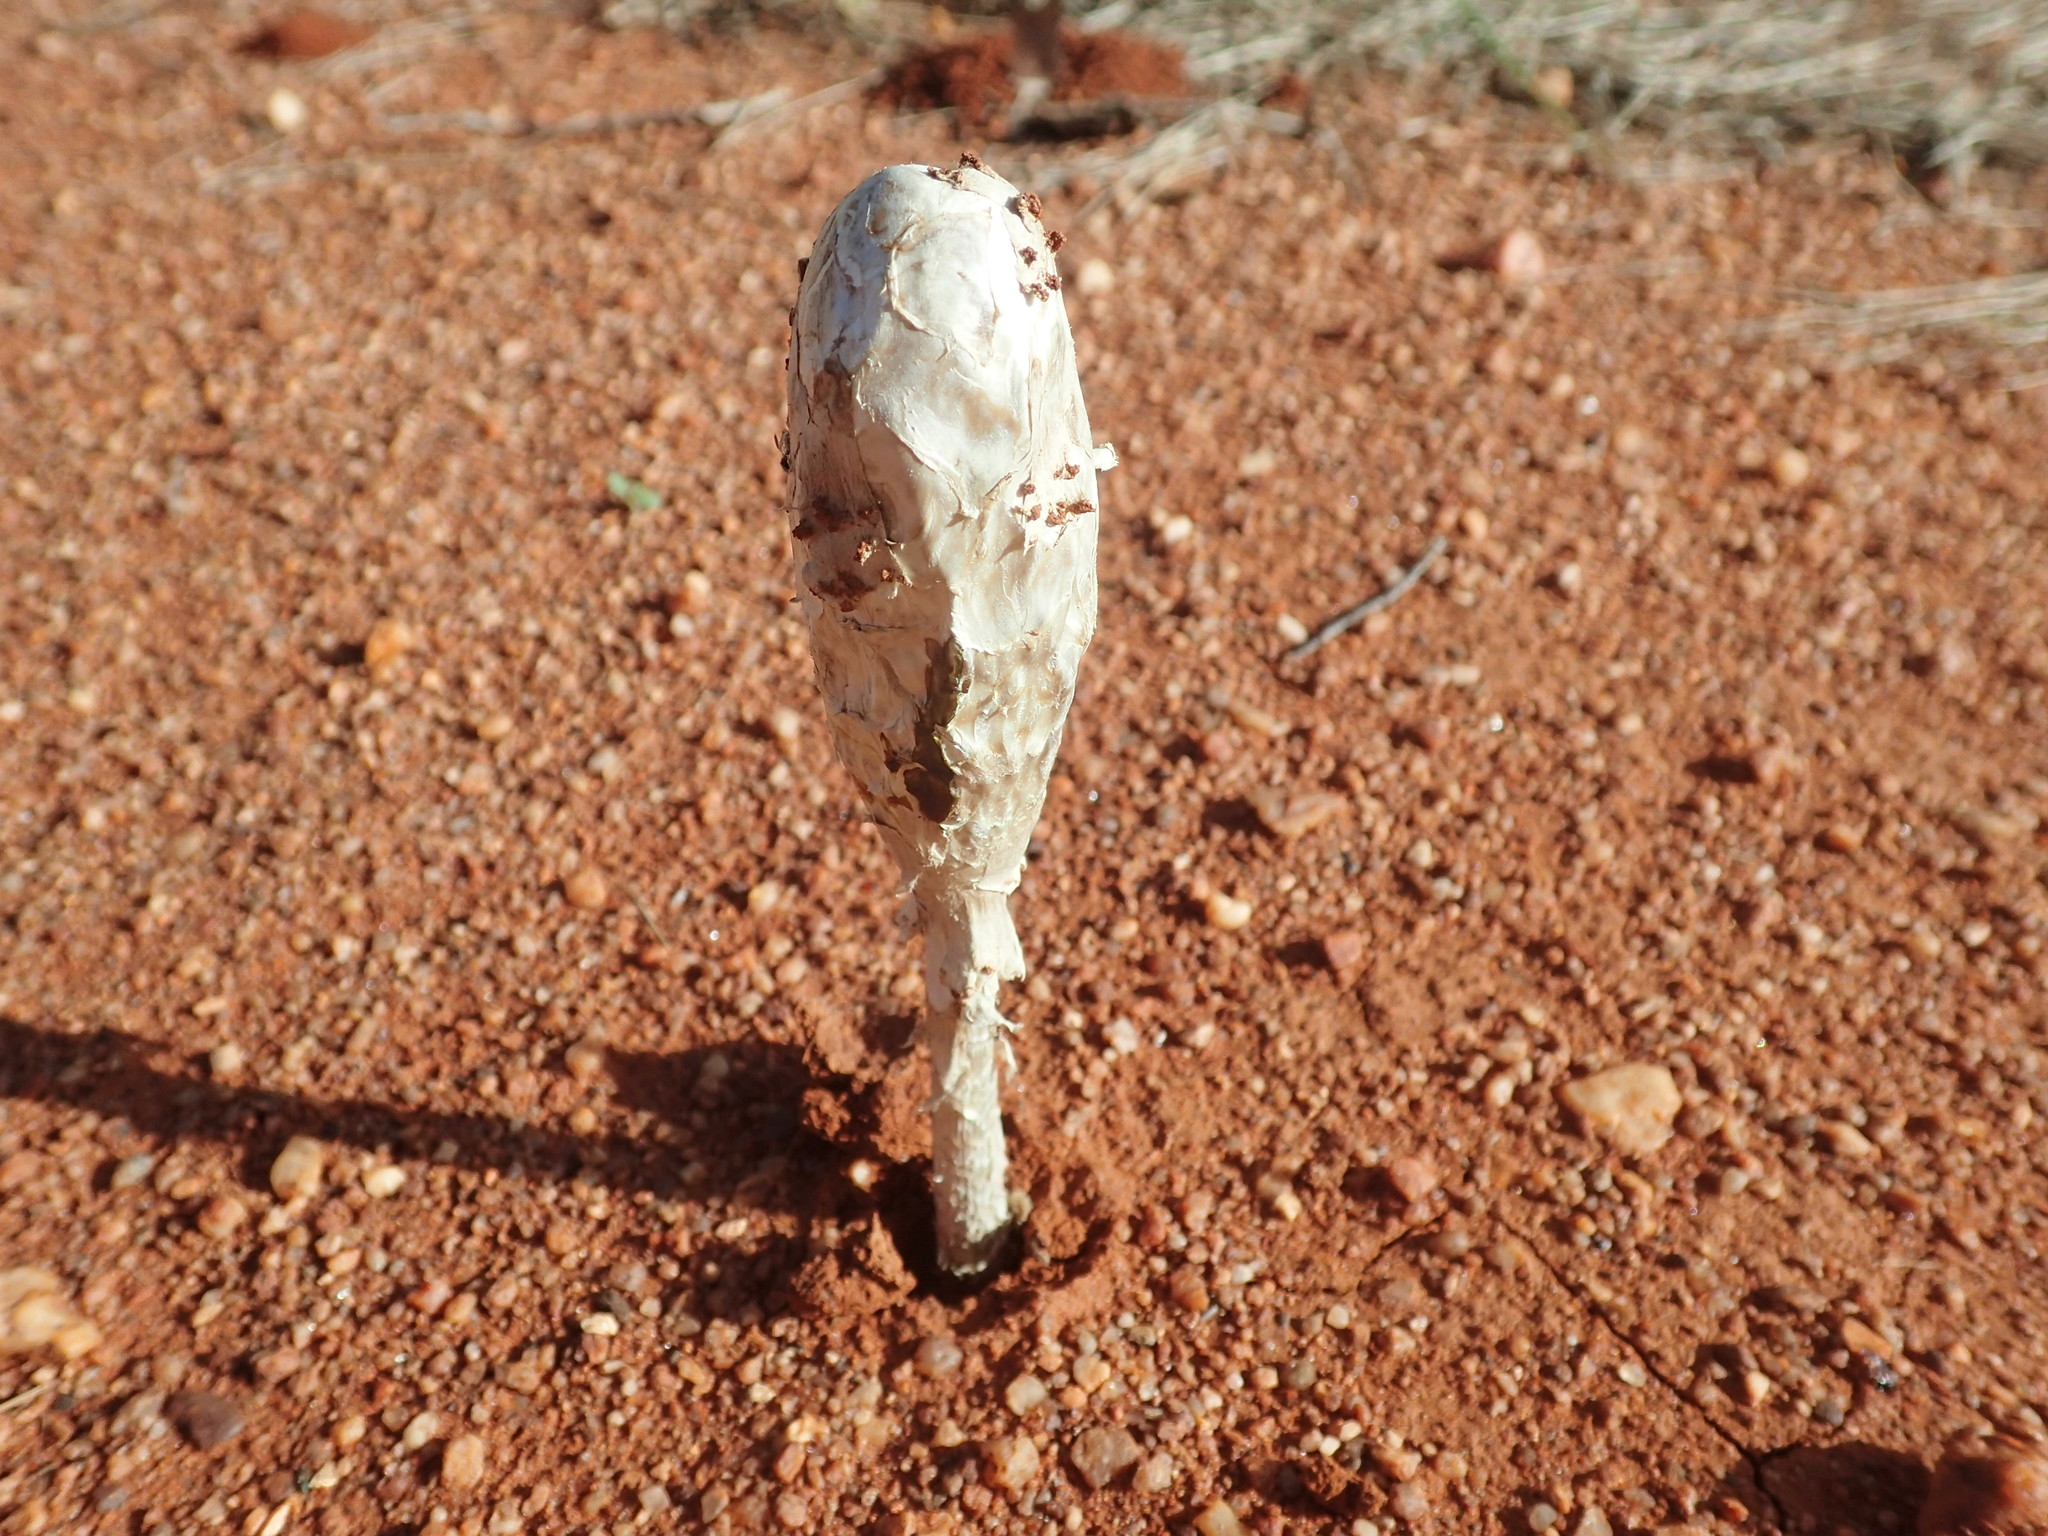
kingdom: Fungi
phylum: Basidiomycota
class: Agaricomycetes
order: Agaricales
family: Agaricaceae
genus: Podaxis
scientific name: Podaxis pistillaris
